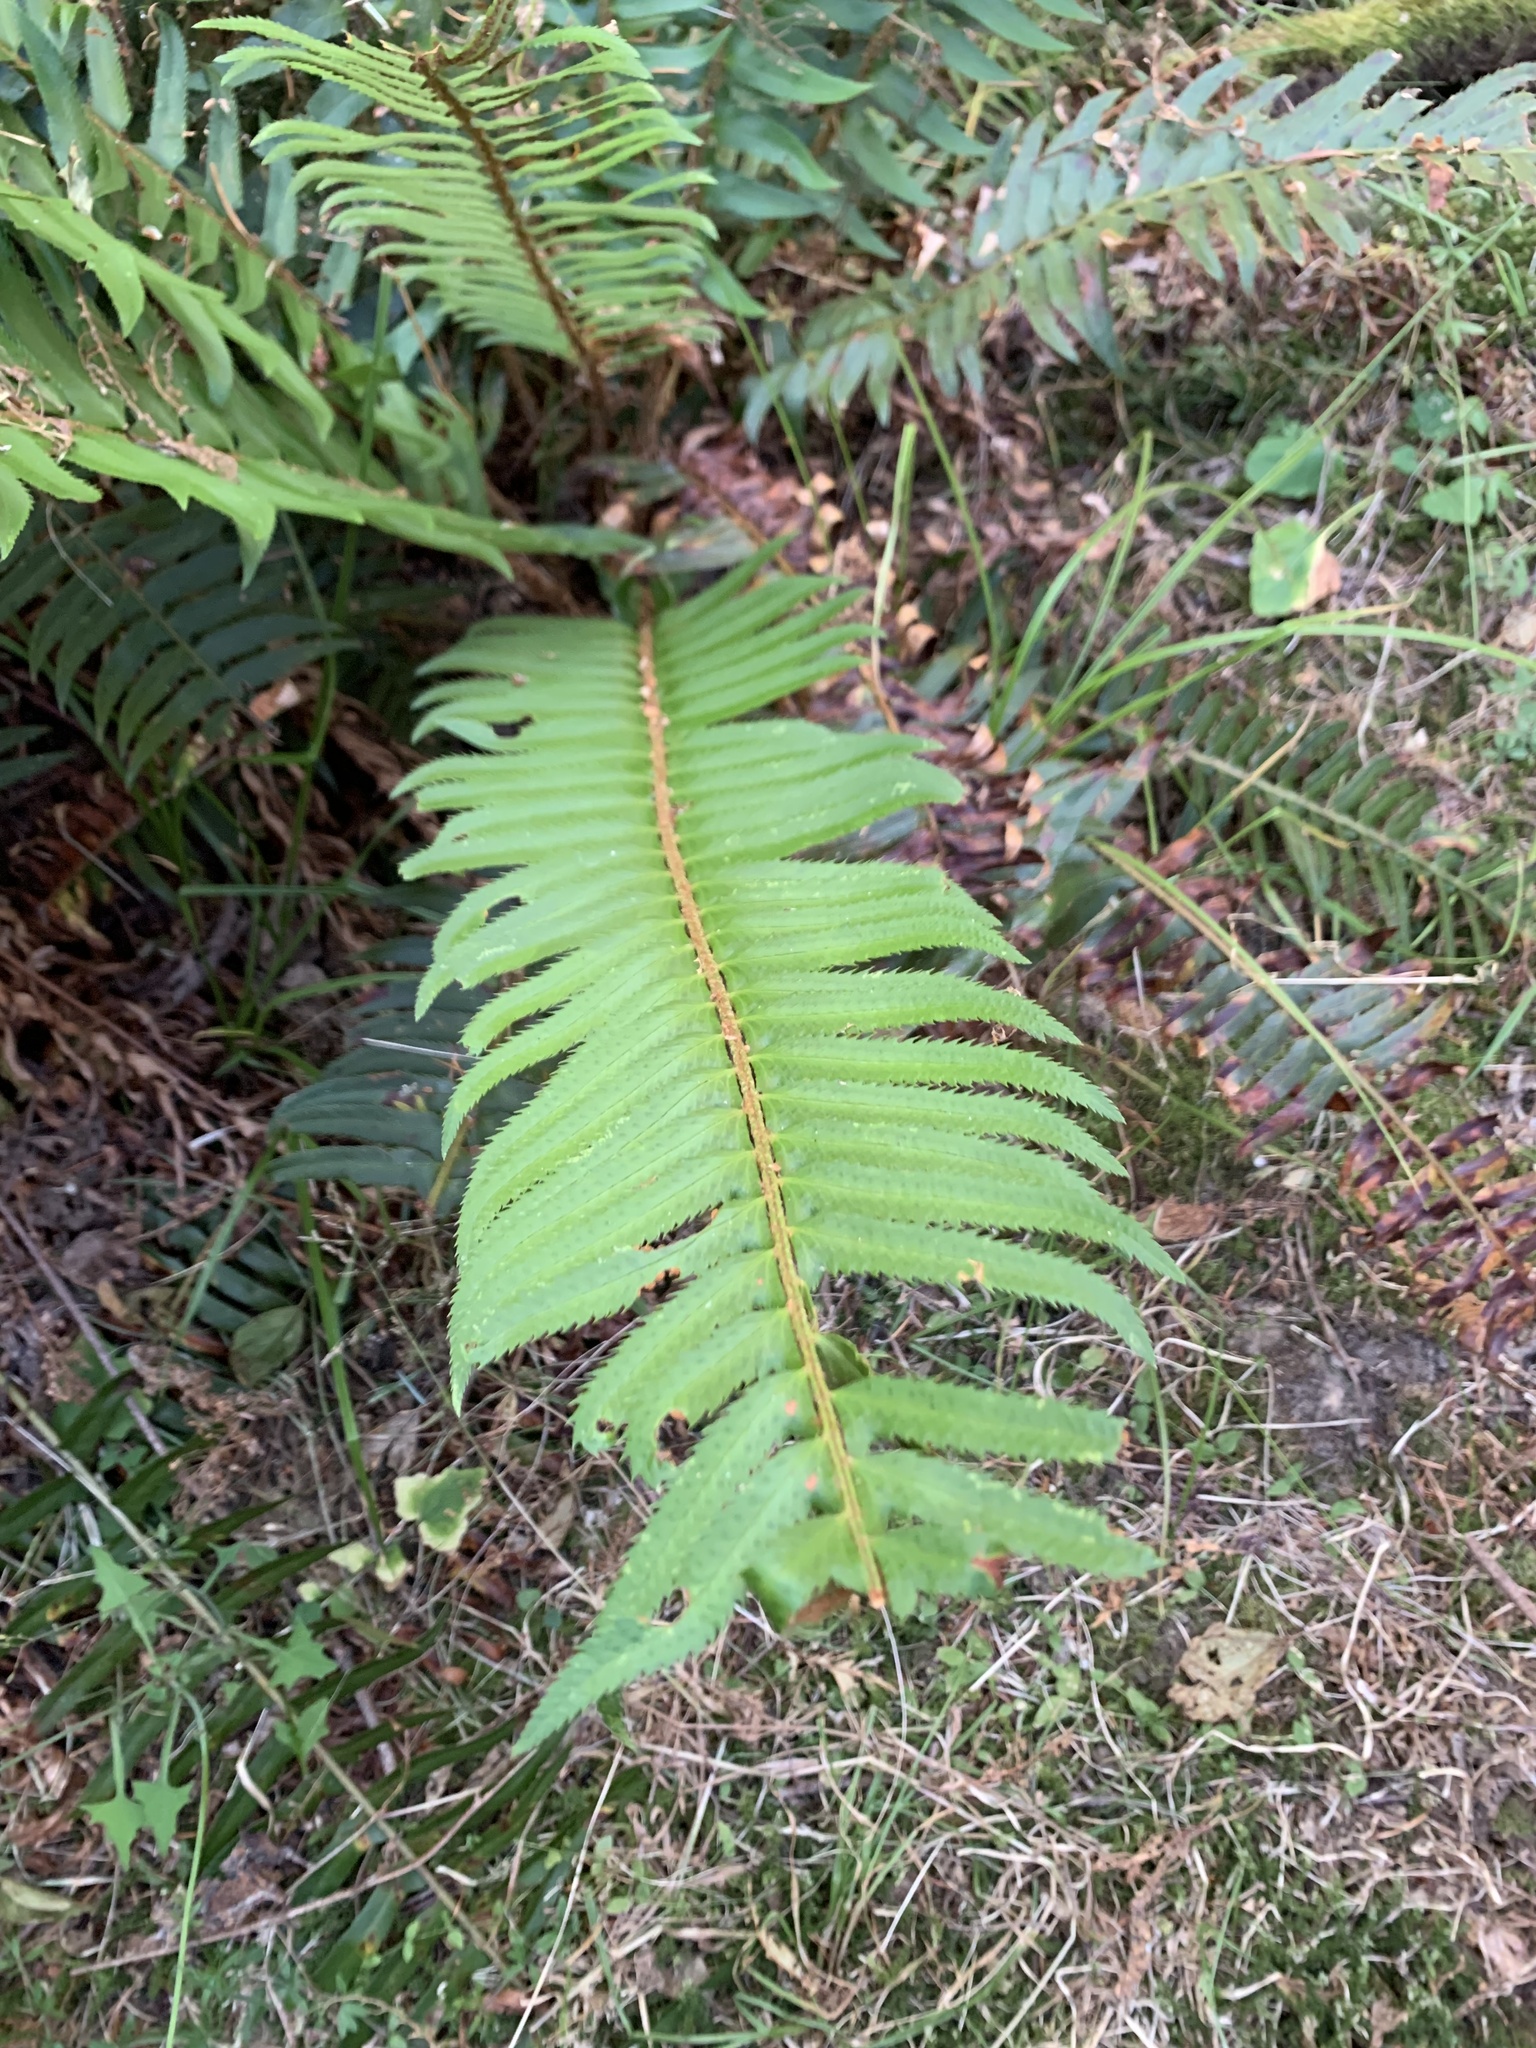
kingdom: Plantae
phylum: Tracheophyta
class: Polypodiopsida
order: Polypodiales
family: Dryopteridaceae
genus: Polystichum
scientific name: Polystichum munitum
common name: Western sword-fern
